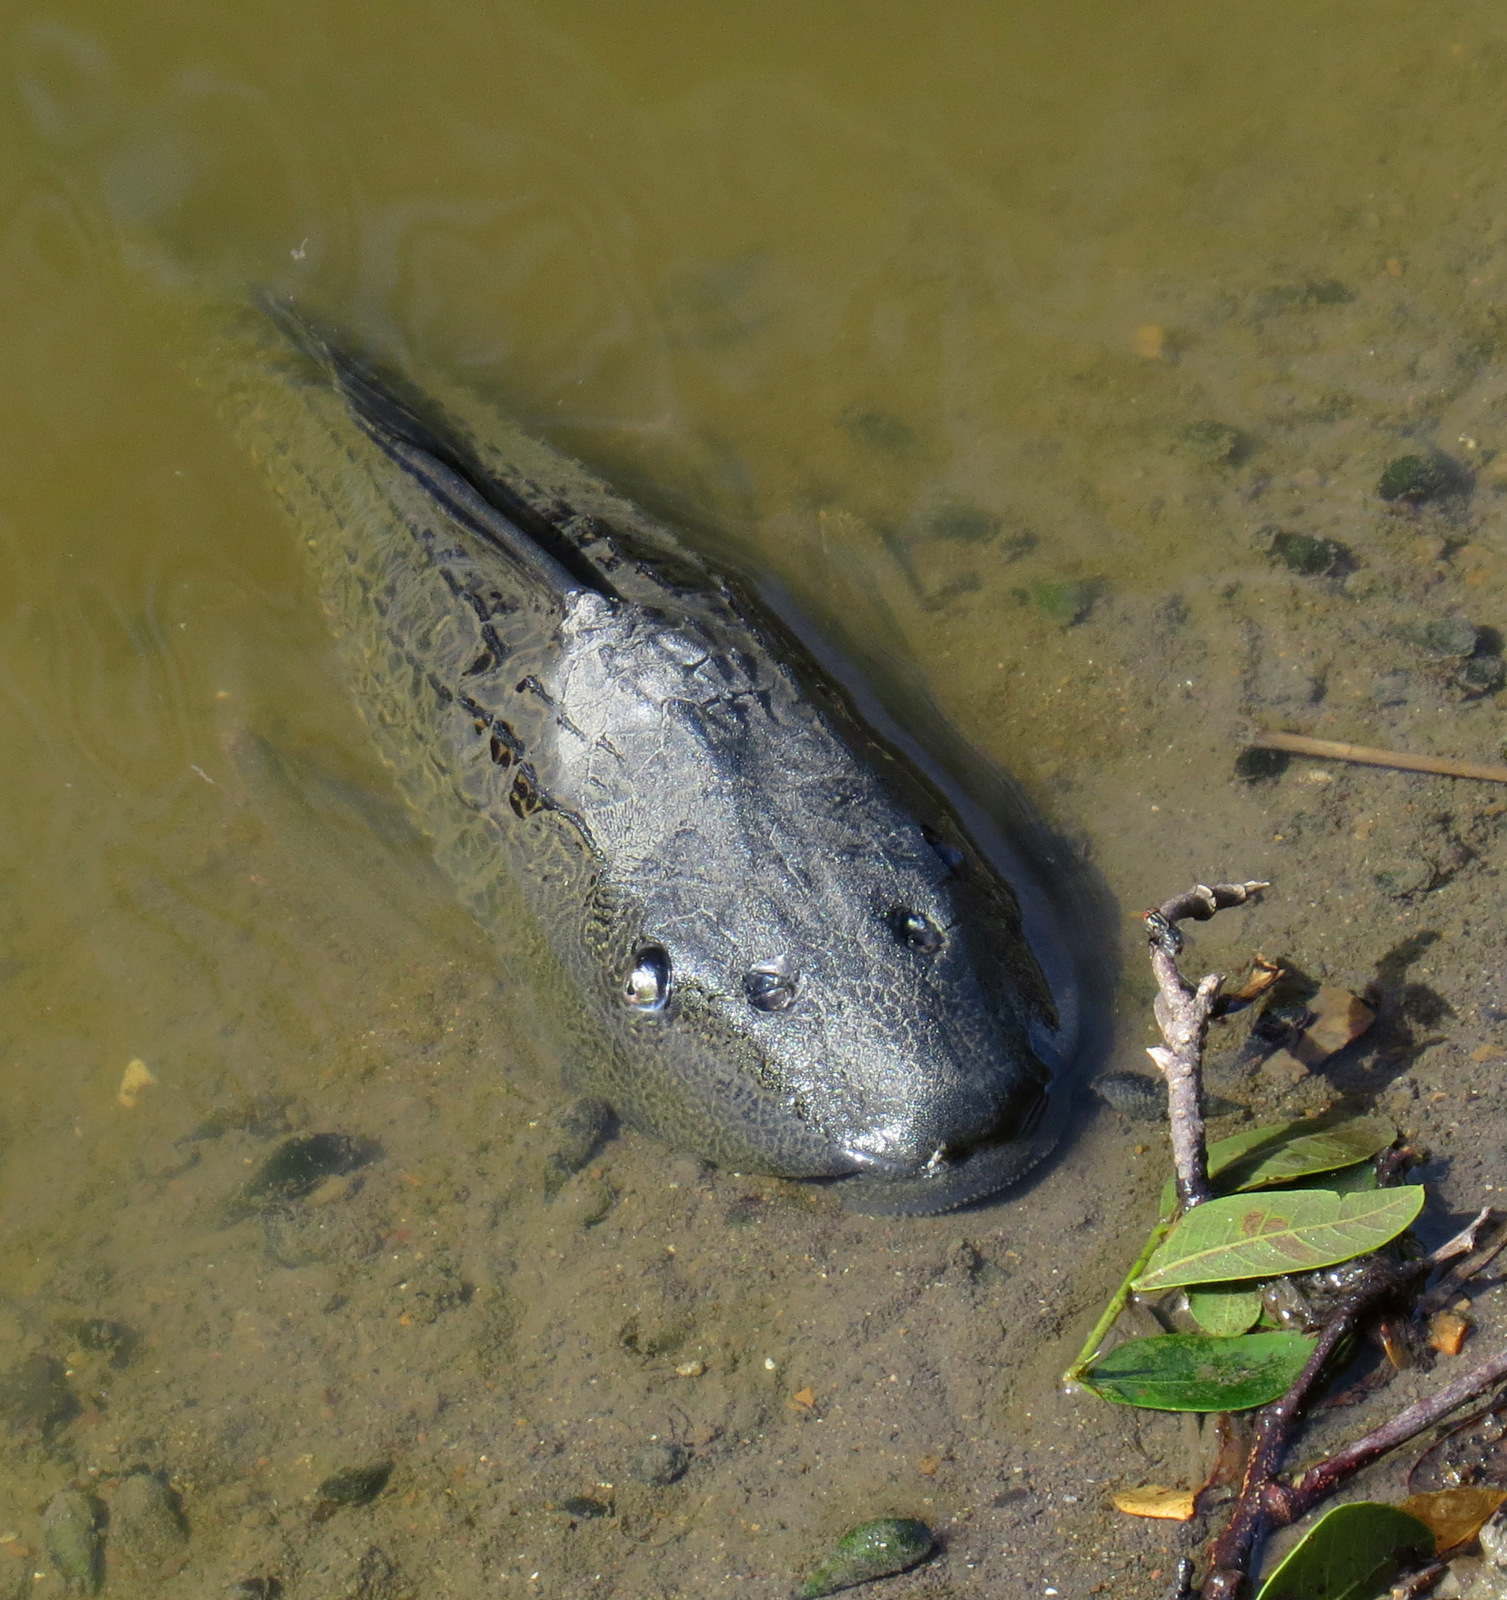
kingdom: Animalia
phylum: Chordata
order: Siluriformes
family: Loricariidae
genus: Pterygoplichthys
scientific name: Pterygoplichthys
